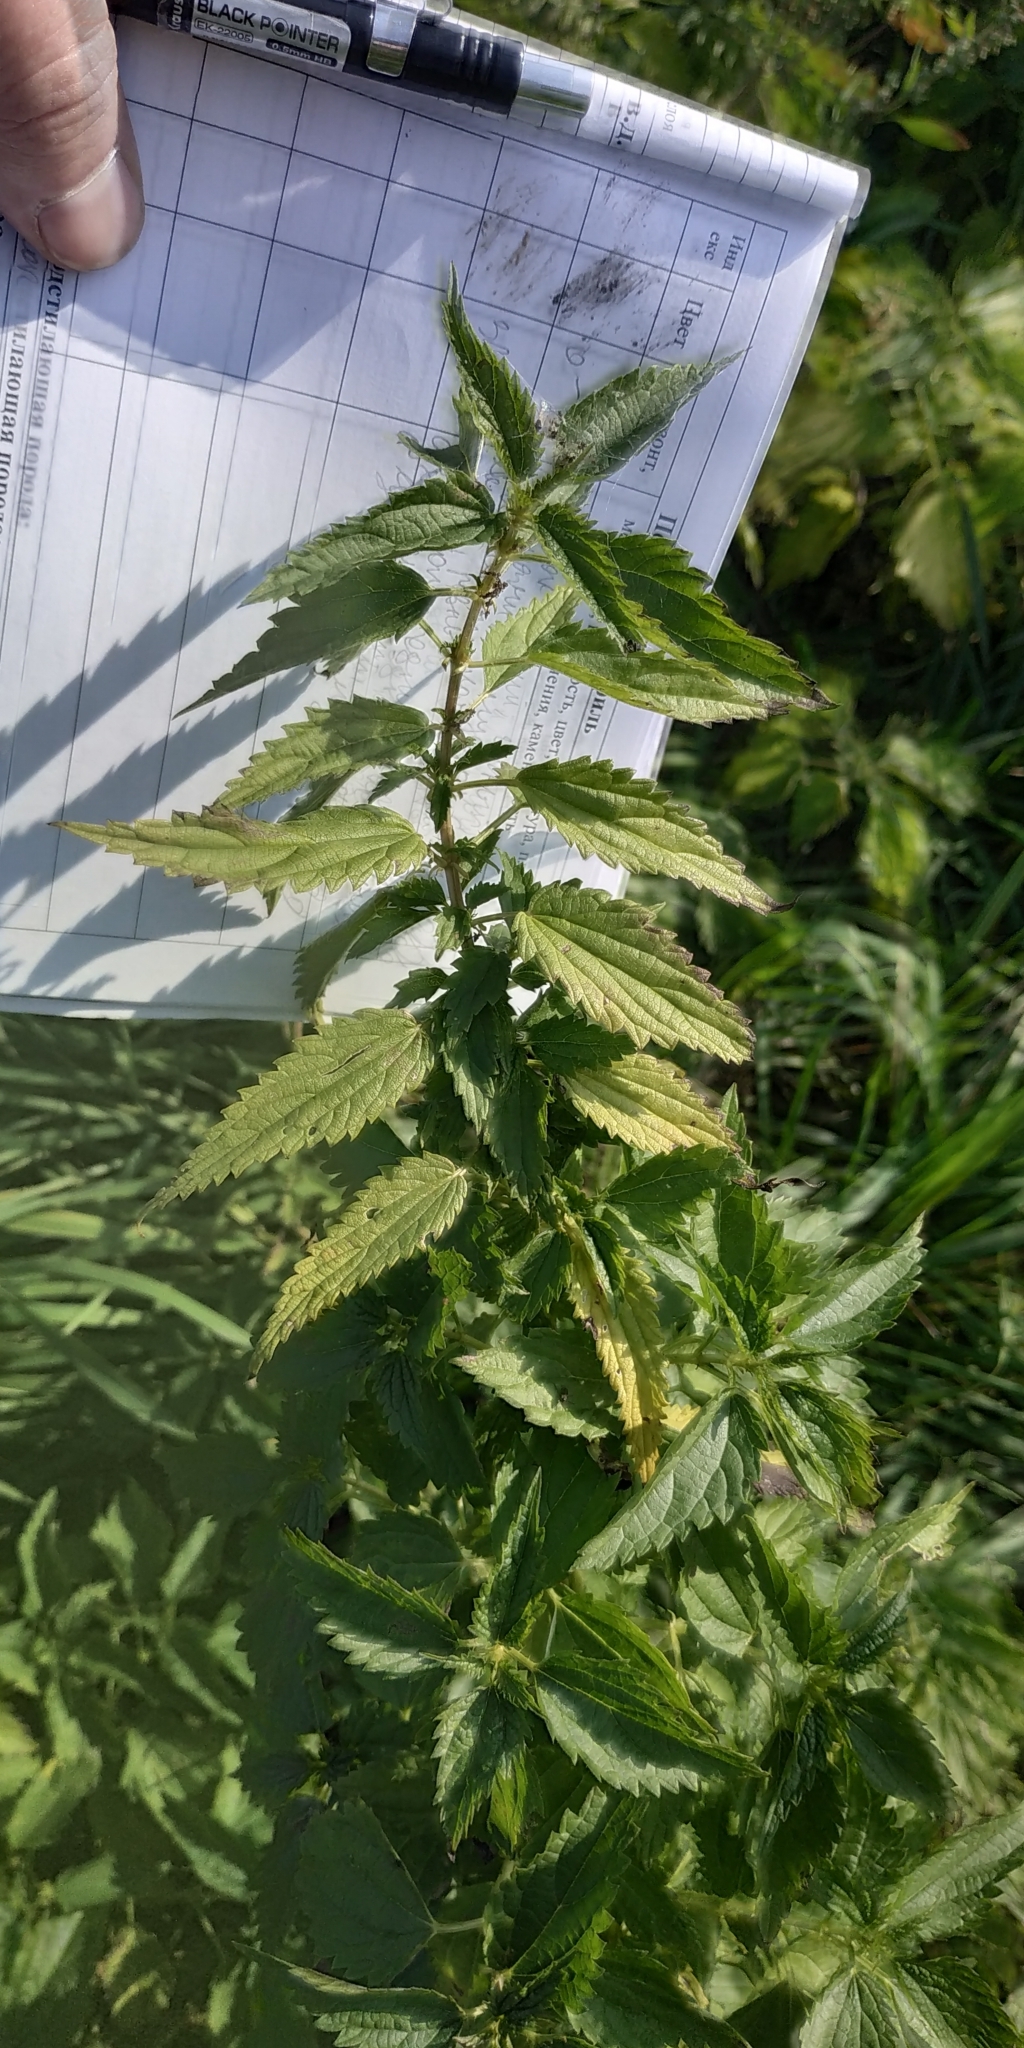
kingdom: Plantae
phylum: Tracheophyta
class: Magnoliopsida
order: Rosales
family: Urticaceae
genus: Urtica
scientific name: Urtica dioica
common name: Common nettle
